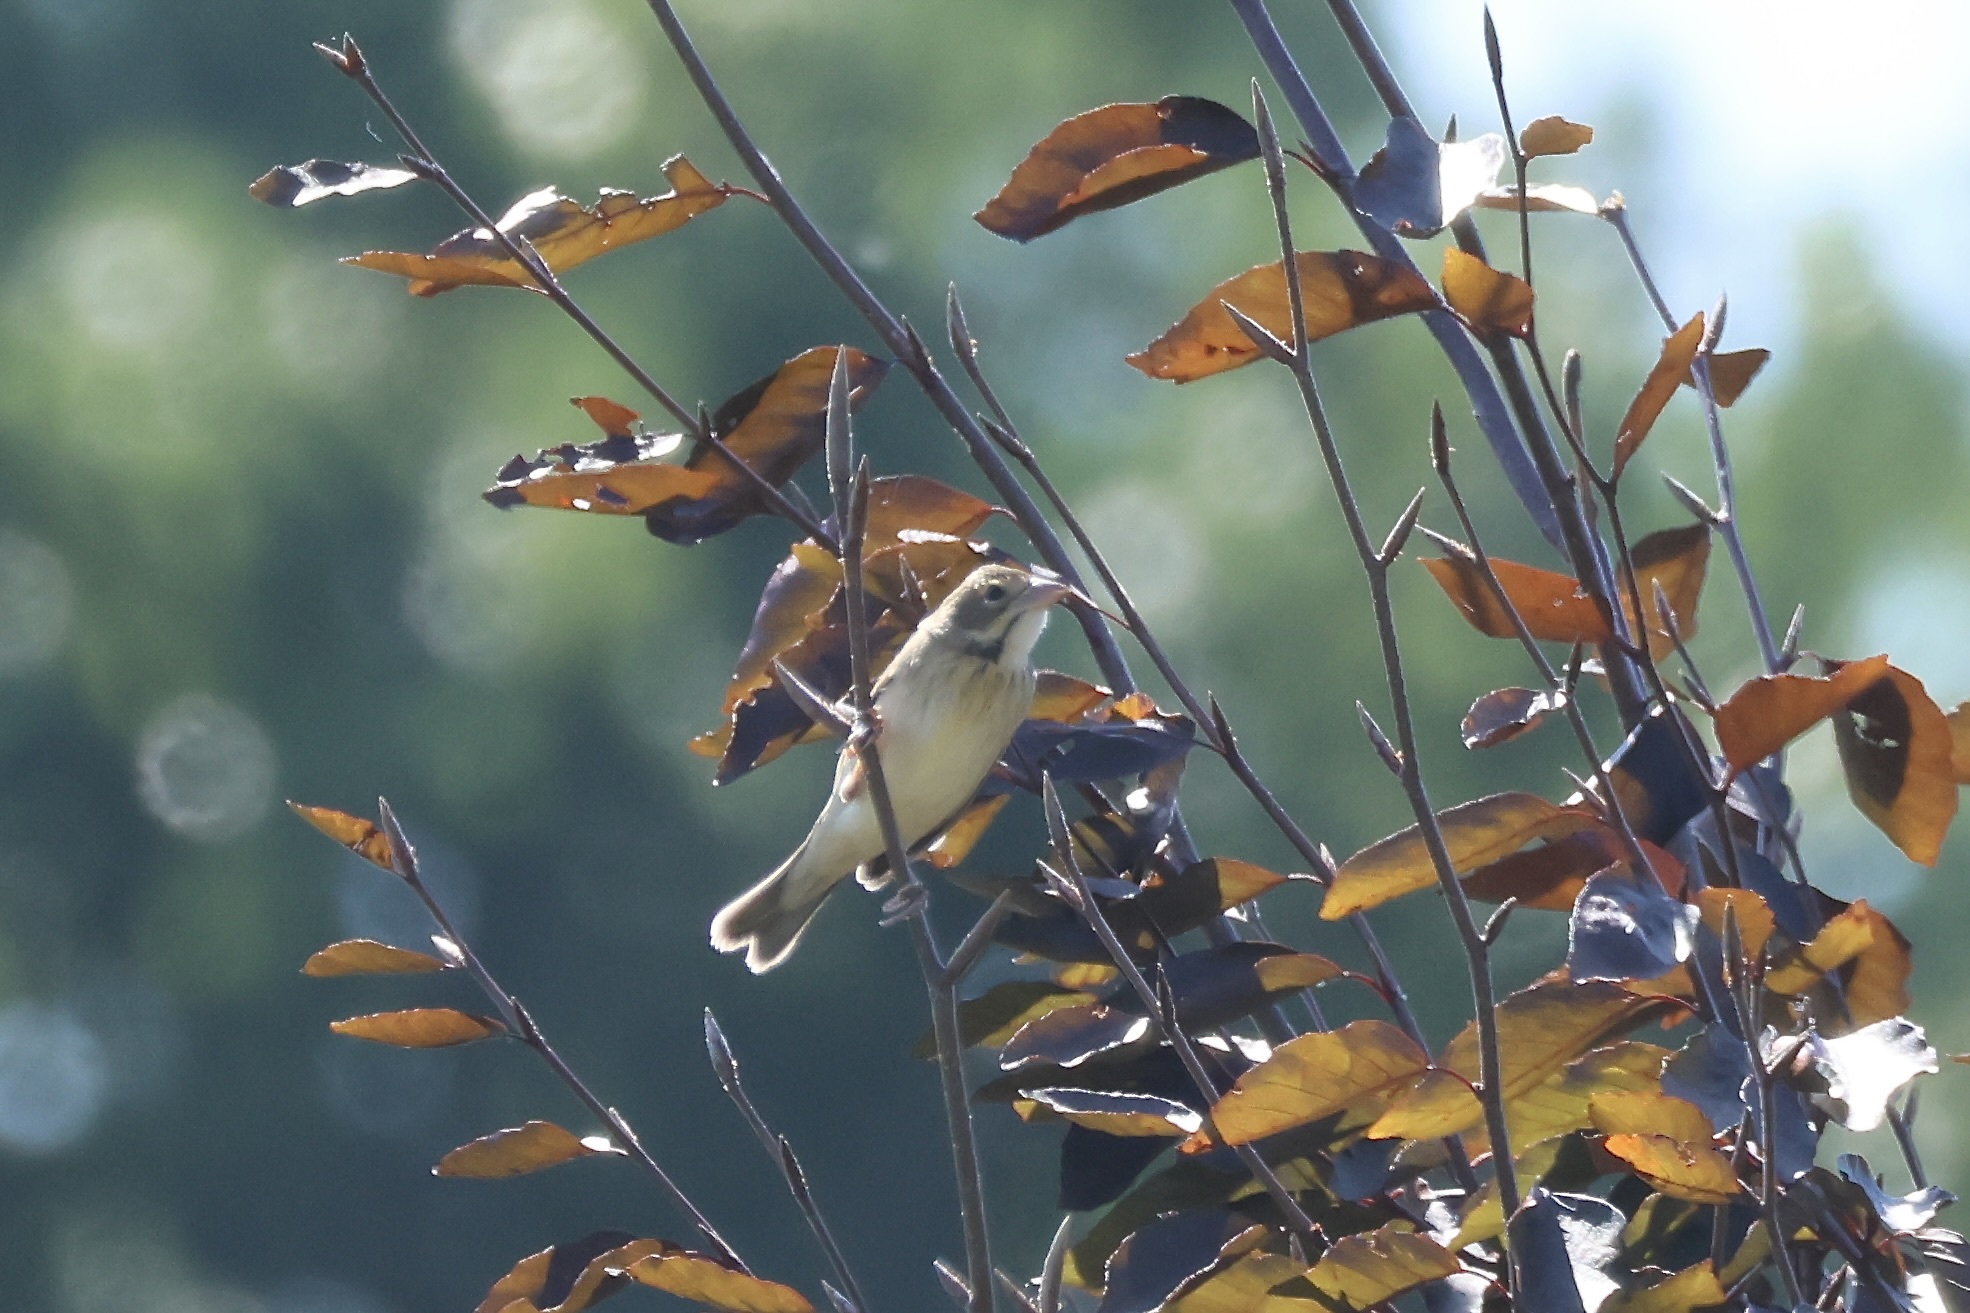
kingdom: Animalia
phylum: Chordata
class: Aves
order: Passeriformes
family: Cardinalidae
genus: Spiza
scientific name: Spiza americana
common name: Dickcissel
